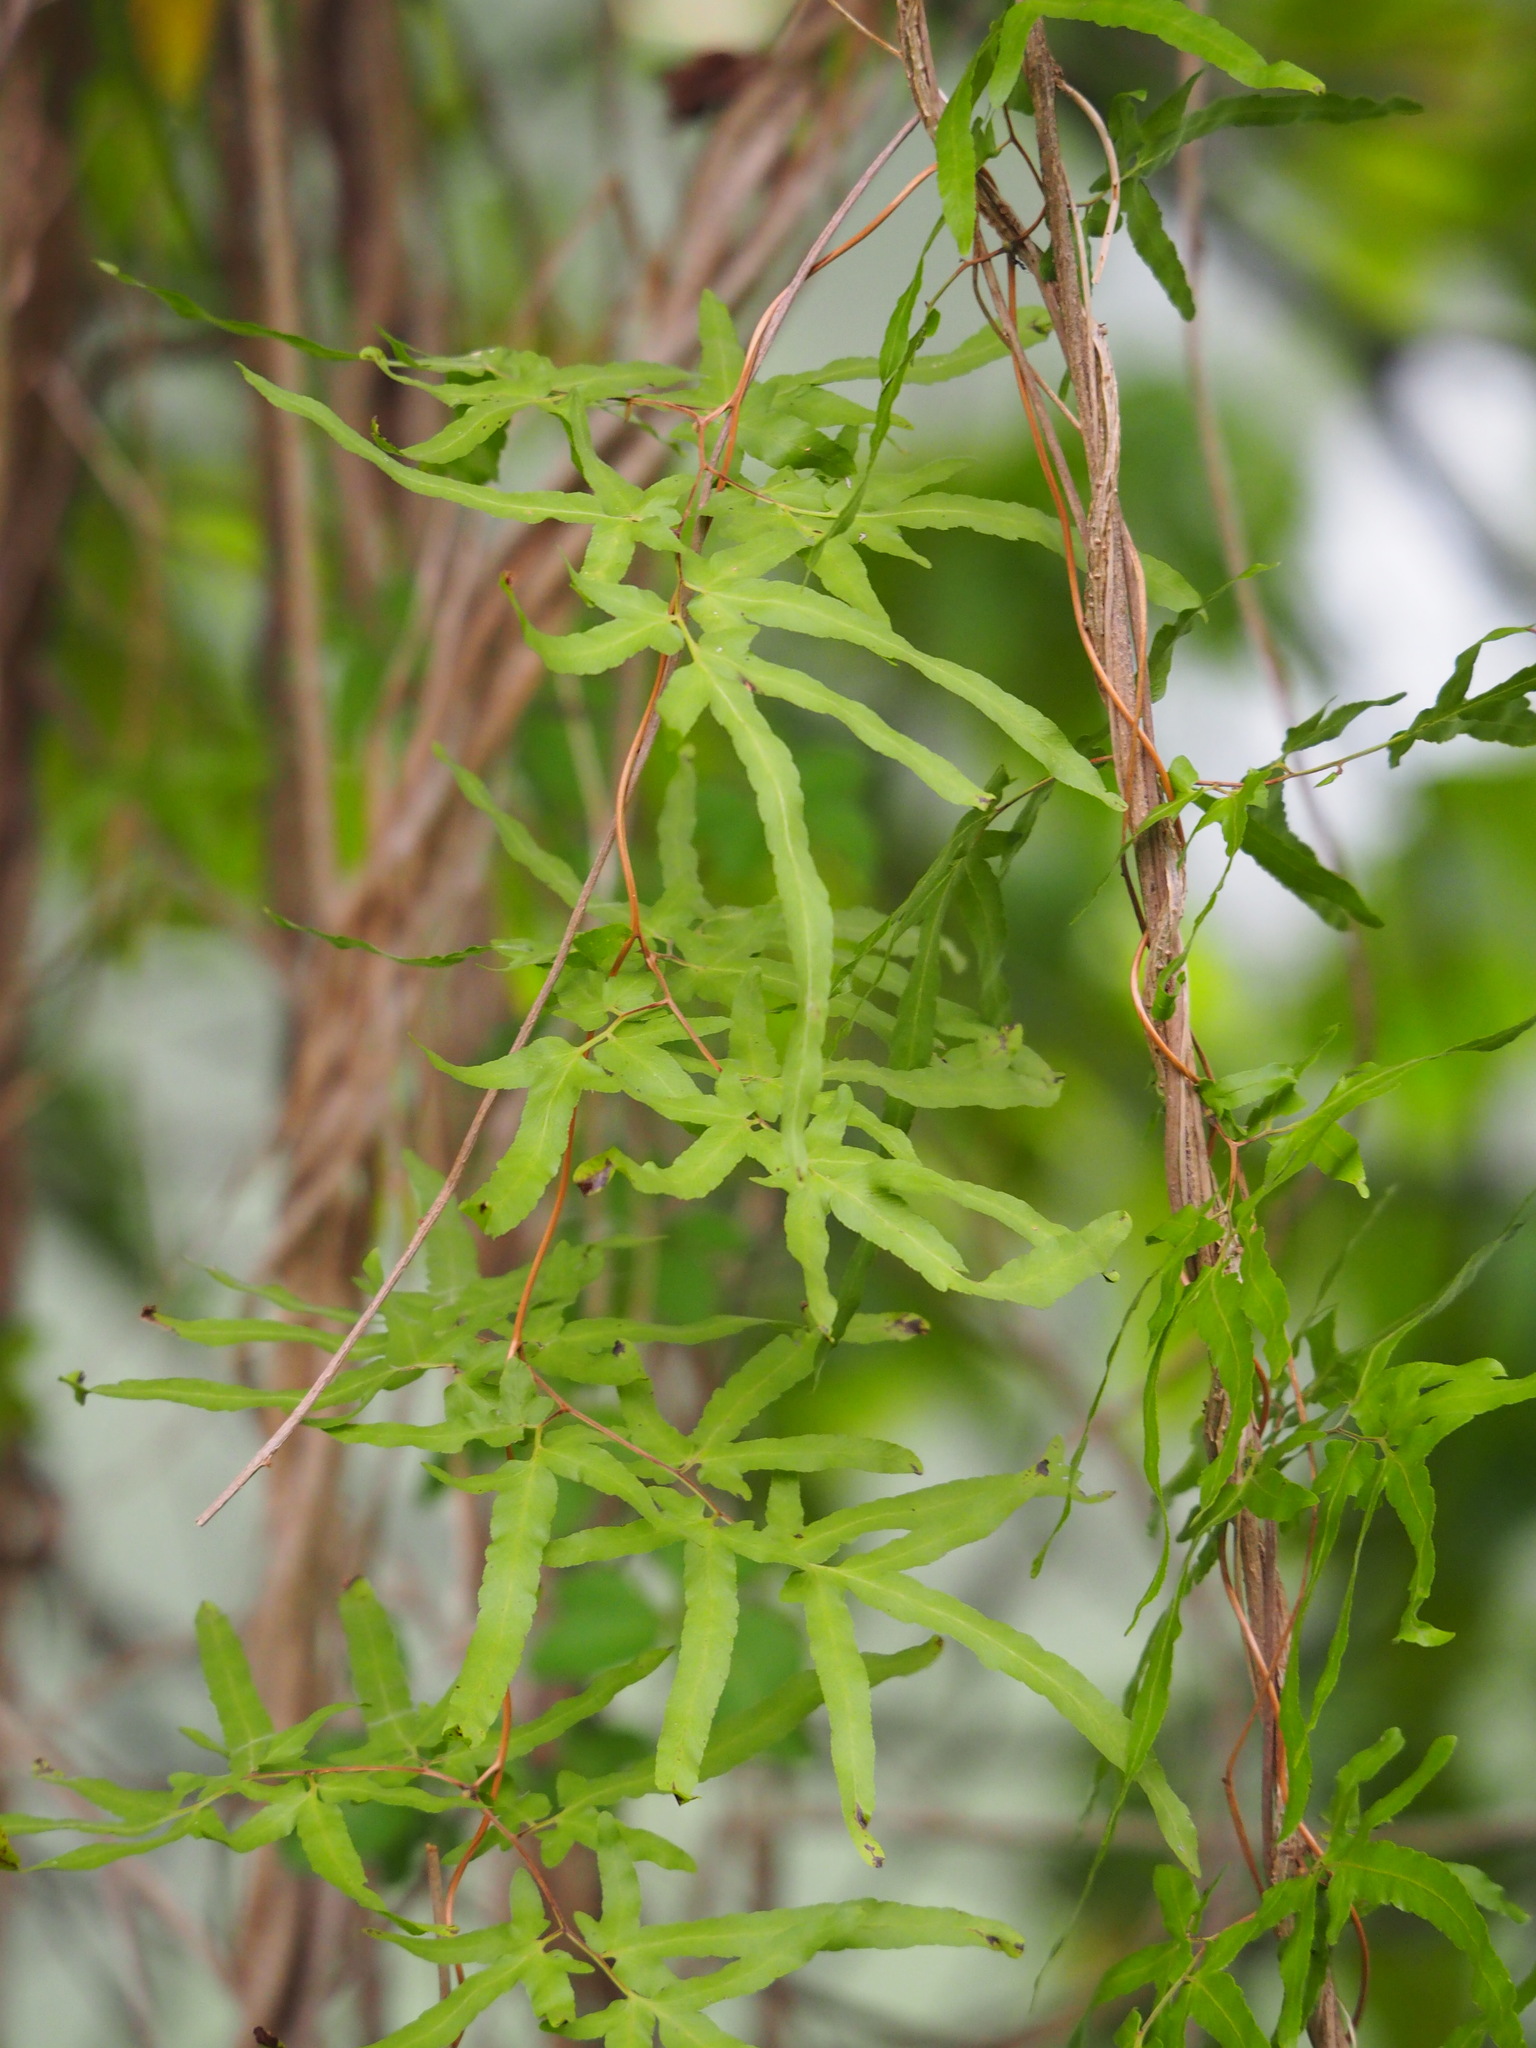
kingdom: Plantae
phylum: Tracheophyta
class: Polypodiopsida
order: Schizaeales
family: Lygodiaceae
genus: Lygodium
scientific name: Lygodium japonicum
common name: Japanese climbing fern
